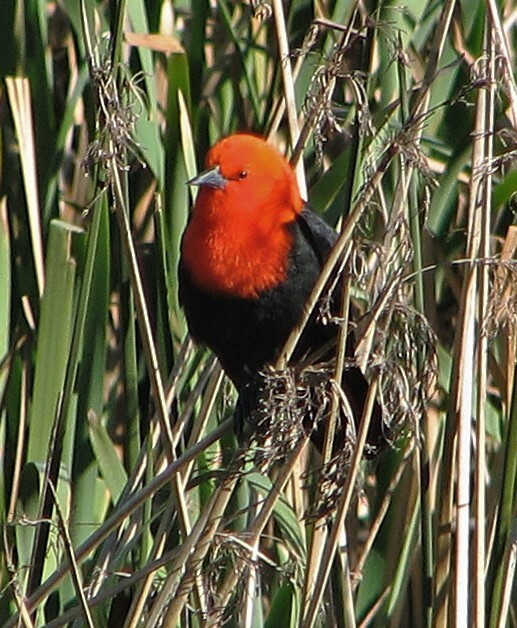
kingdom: Animalia
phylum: Chordata
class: Aves
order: Passeriformes
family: Icteridae
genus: Amblyramphus
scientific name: Amblyramphus holosericeus
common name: Scarlet-headed blackbird
